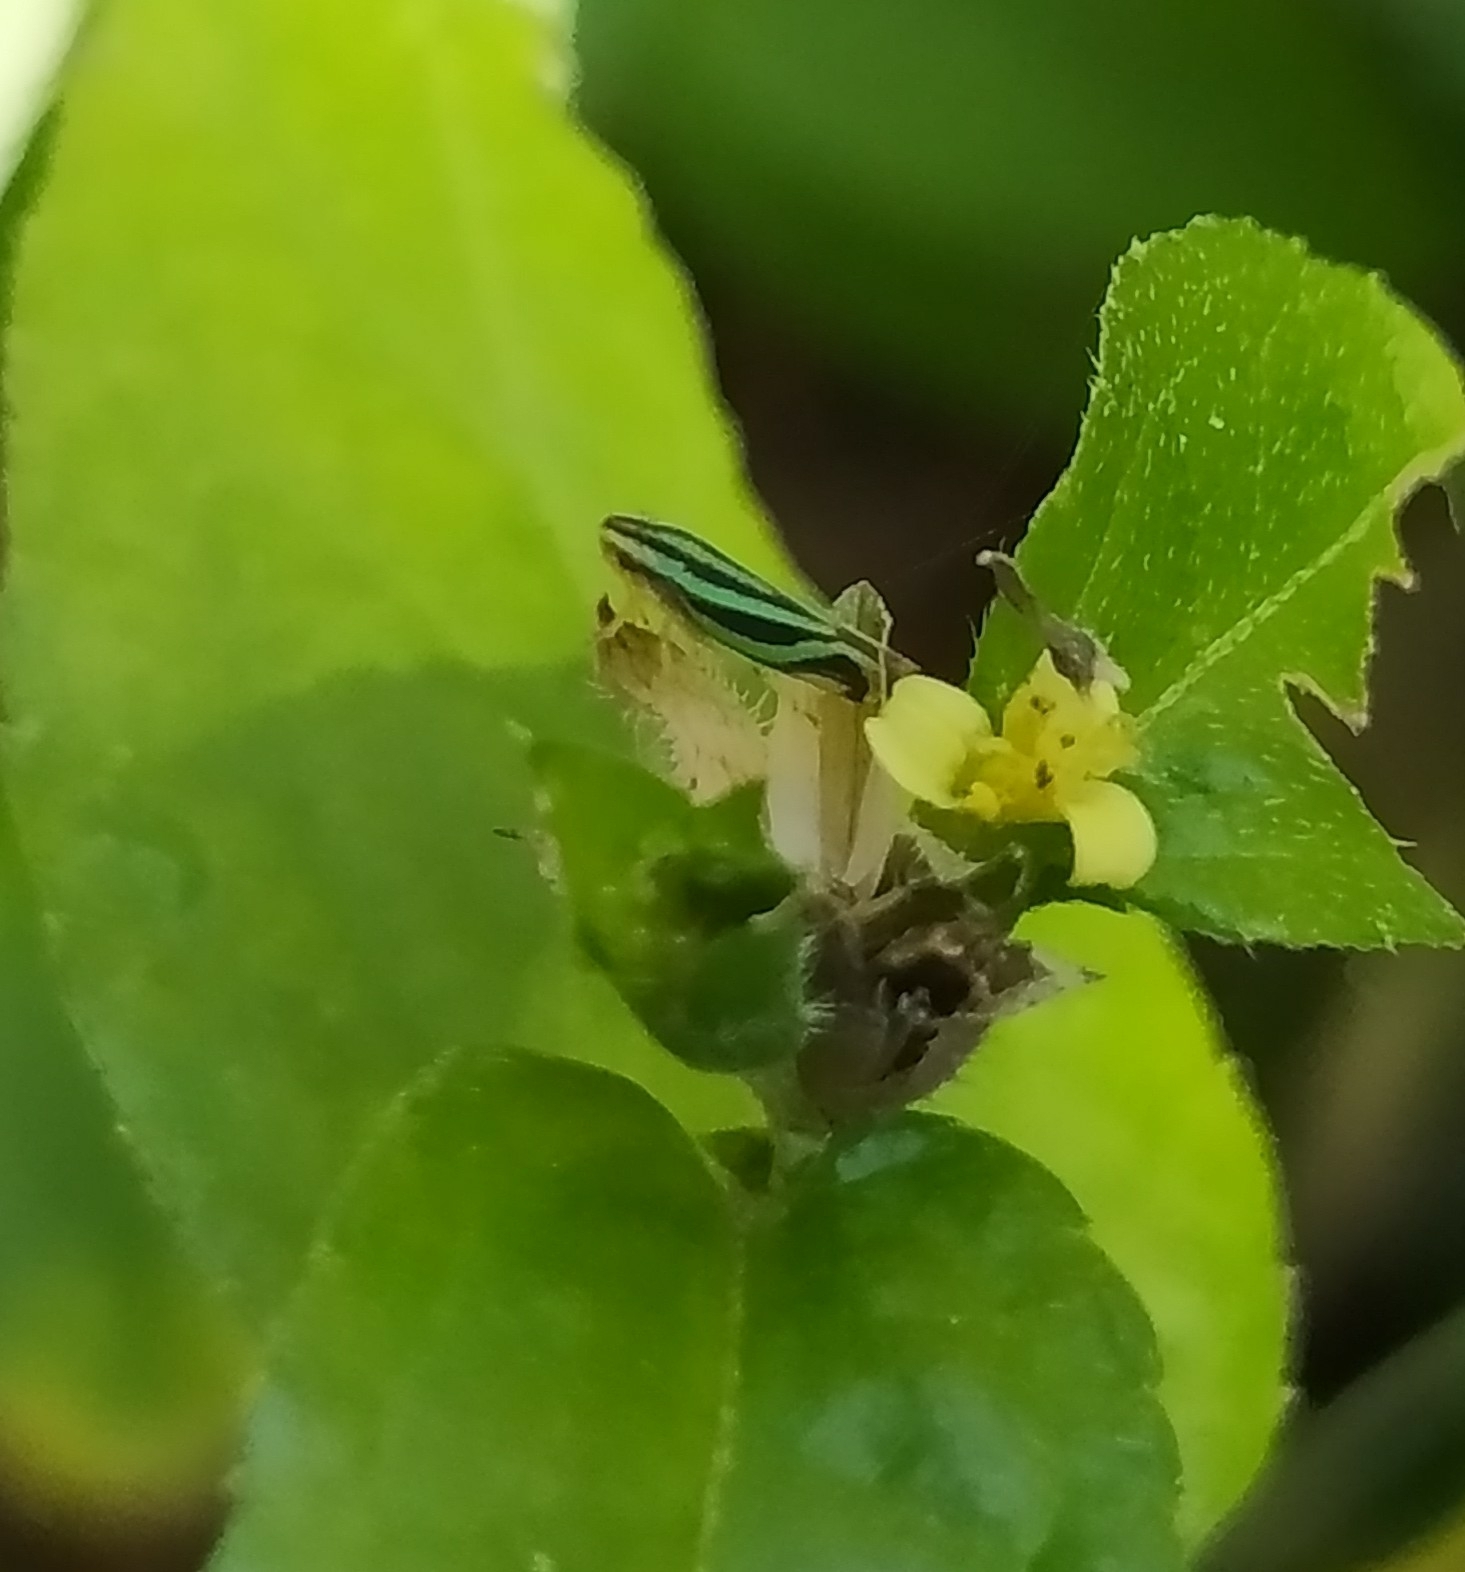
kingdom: Animalia
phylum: Arthropoda
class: Insecta
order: Hemiptera
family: Cicadellidae
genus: Sibovia
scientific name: Sibovia sagata
